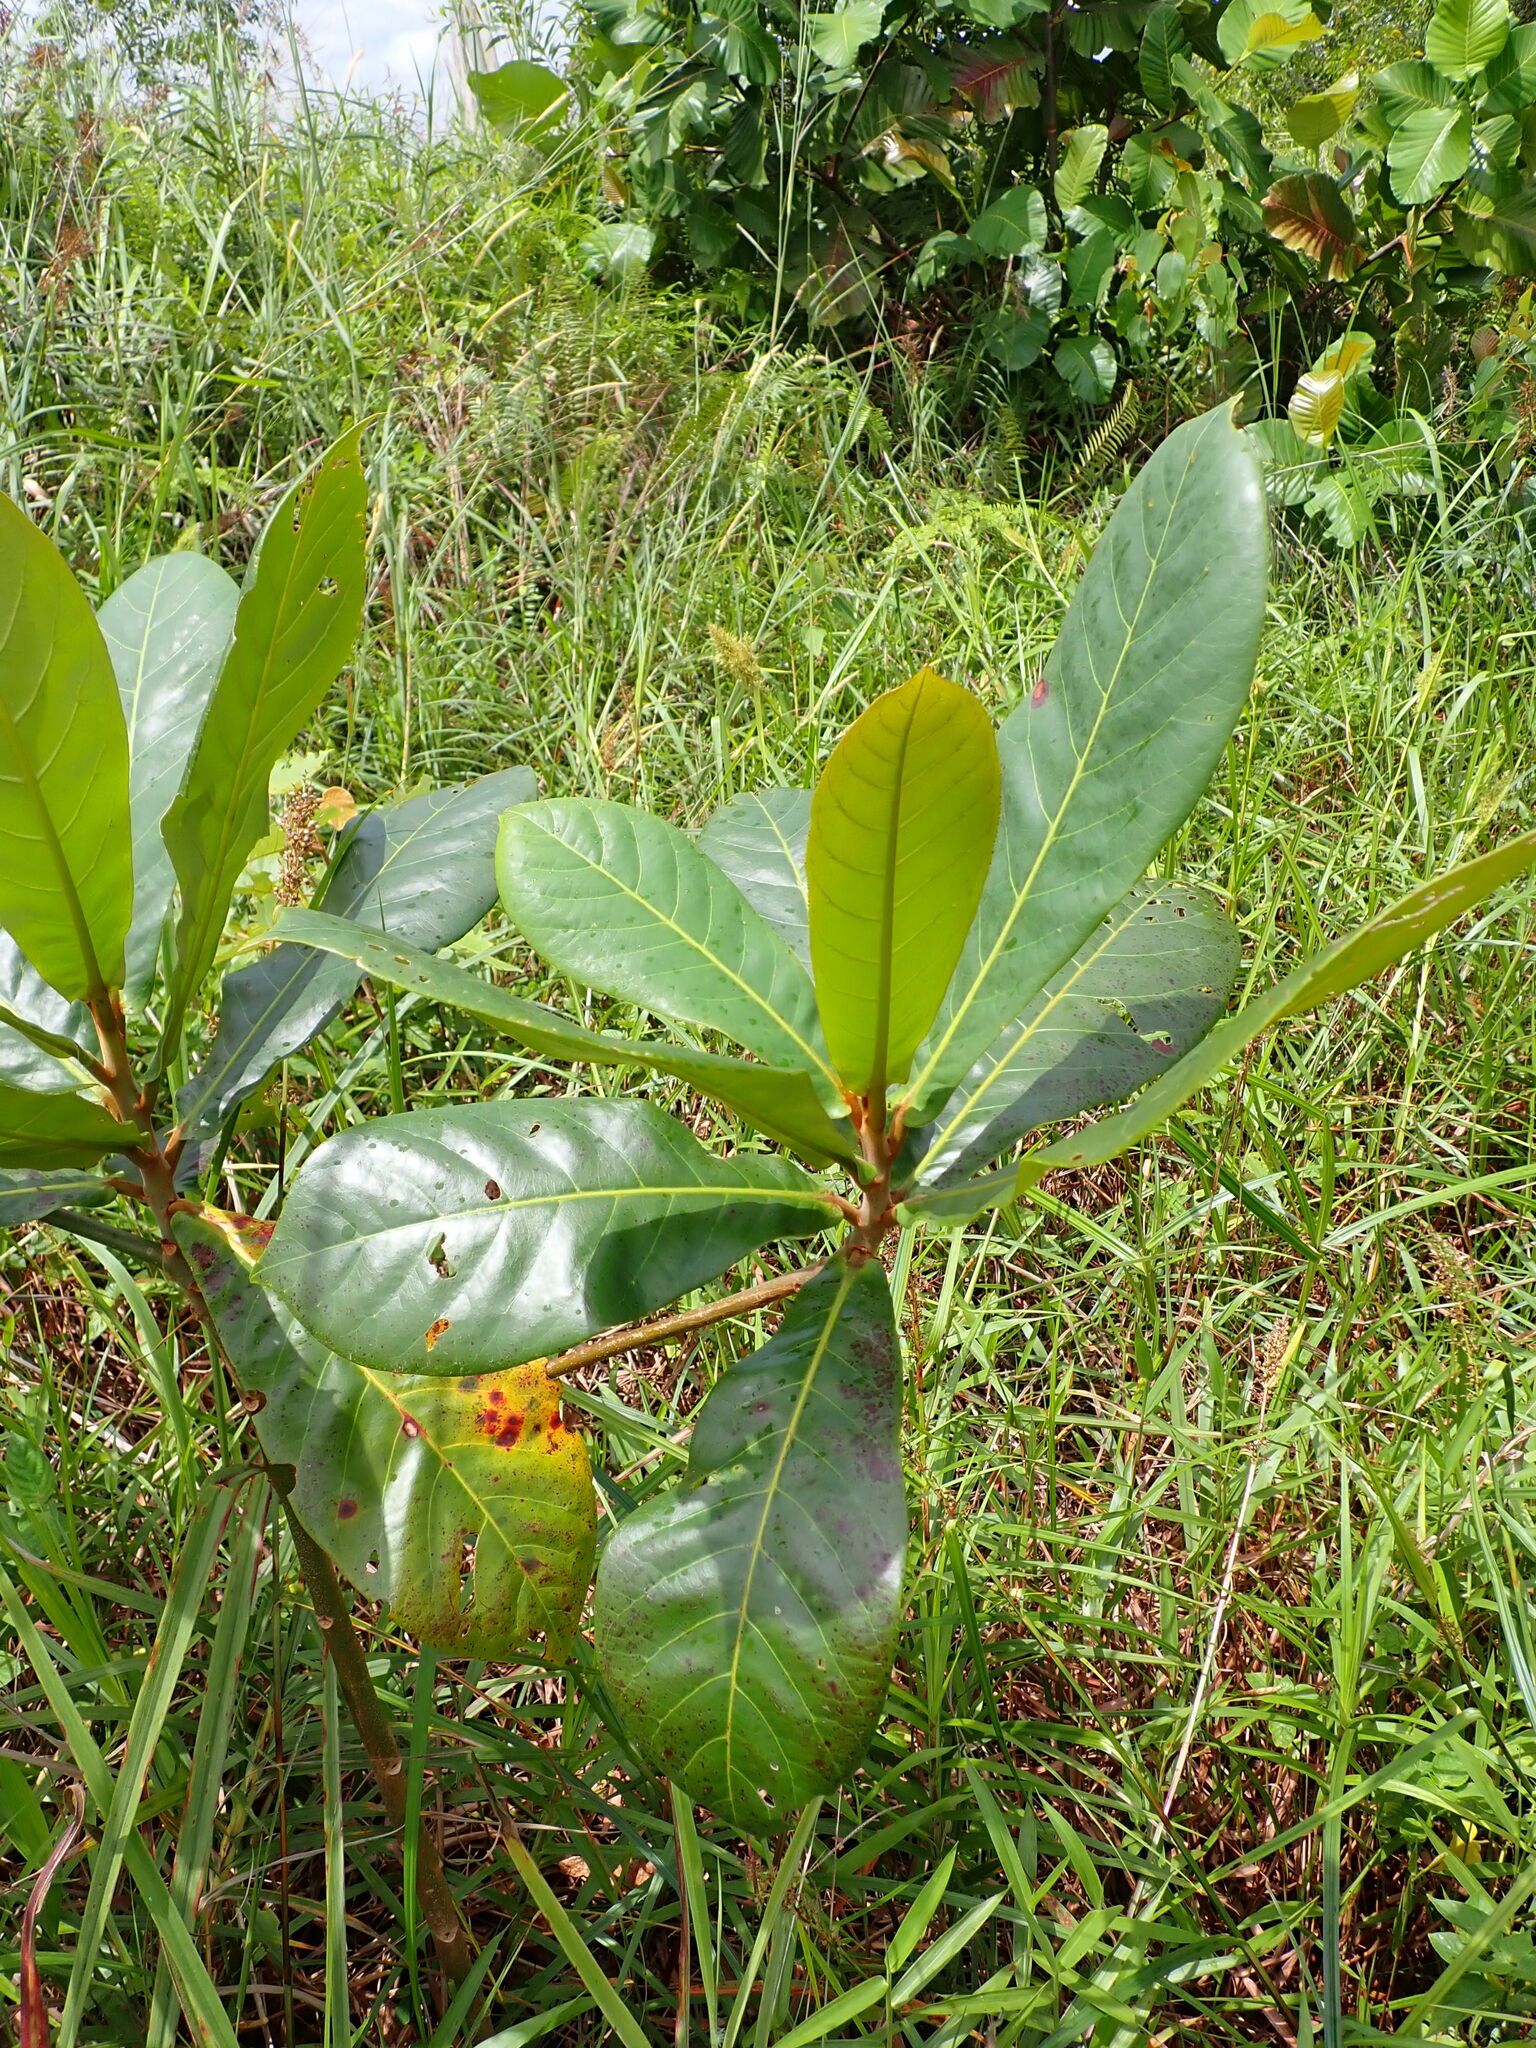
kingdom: Plantae
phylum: Tracheophyta
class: Magnoliopsida
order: Myrtales
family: Combretaceae
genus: Terminalia
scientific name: Terminalia catappa
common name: Tropical almond
